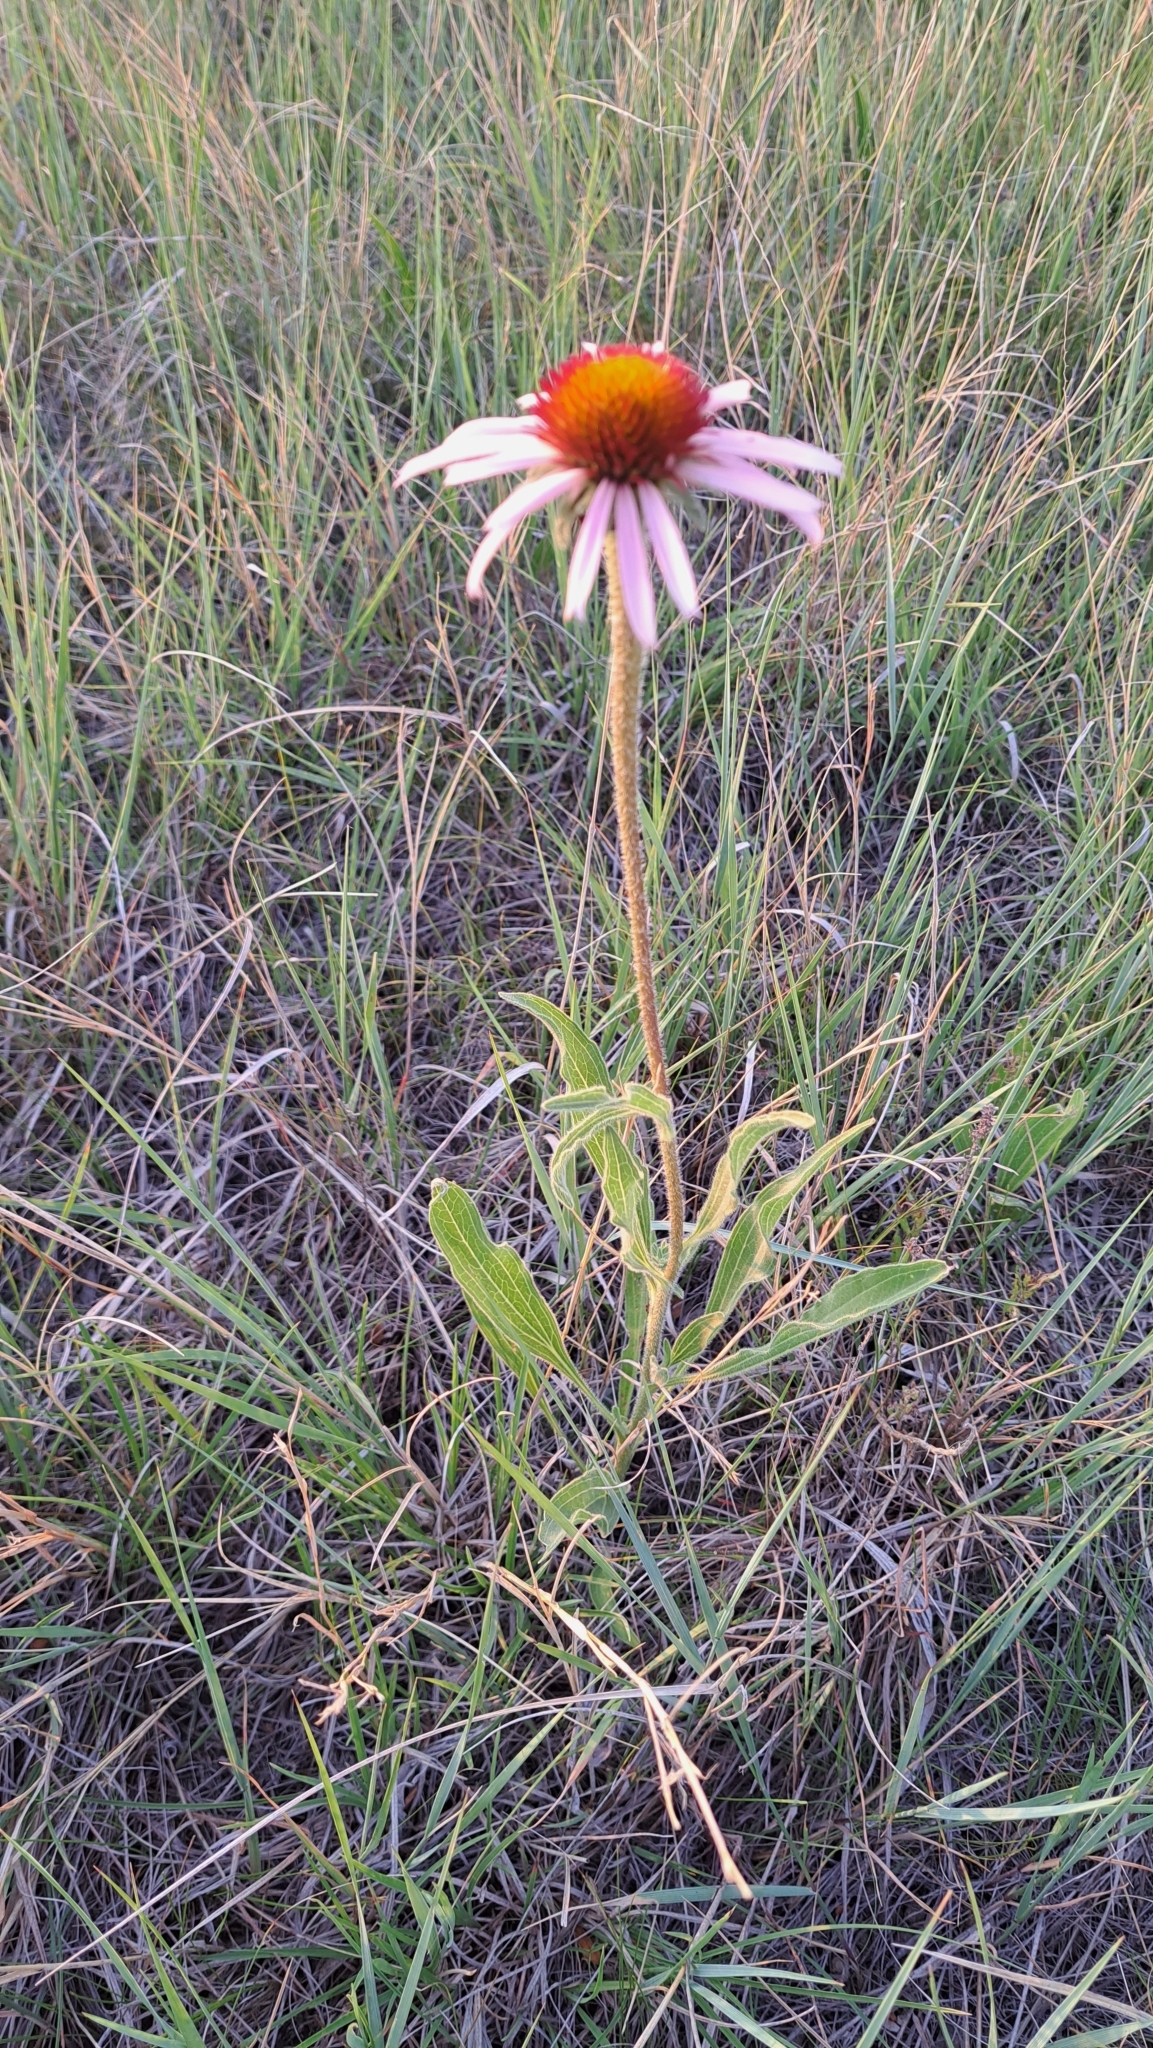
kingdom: Plantae
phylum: Tracheophyta
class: Magnoliopsida
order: Asterales
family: Asteraceae
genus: Echinacea
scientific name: Echinacea angustifolia
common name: Black-sampson echinacea
